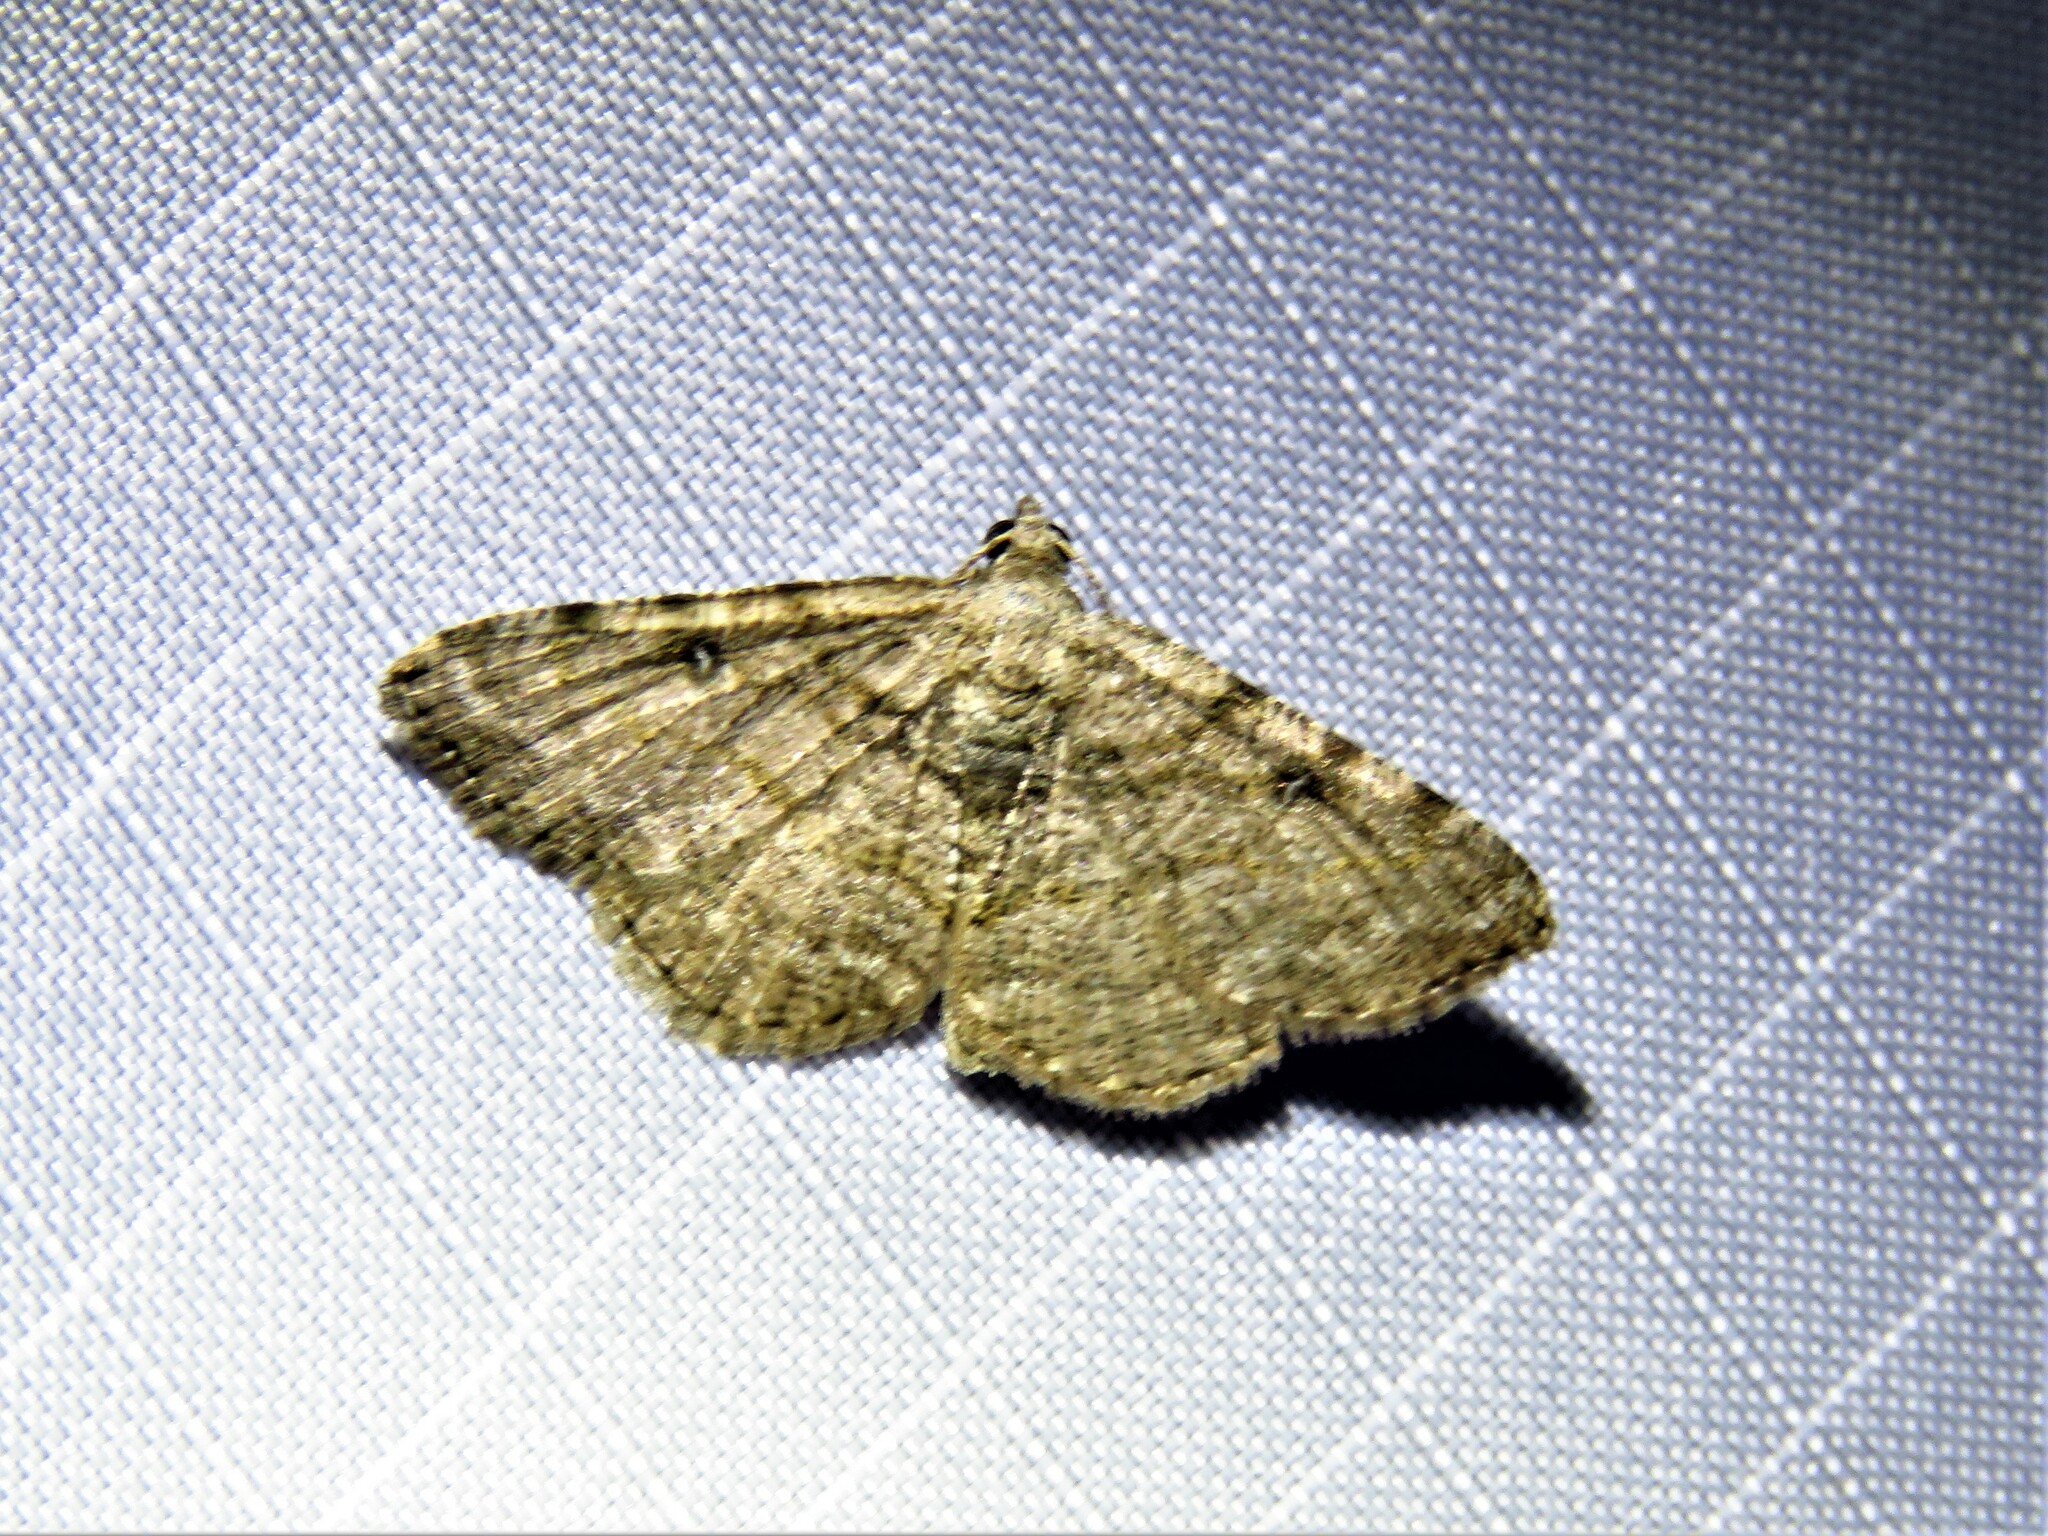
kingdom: Animalia
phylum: Arthropoda
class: Insecta
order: Lepidoptera
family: Geometridae
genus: Digrammia
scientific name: Digrammia gnophosaria
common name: Hollow-spotted angle
